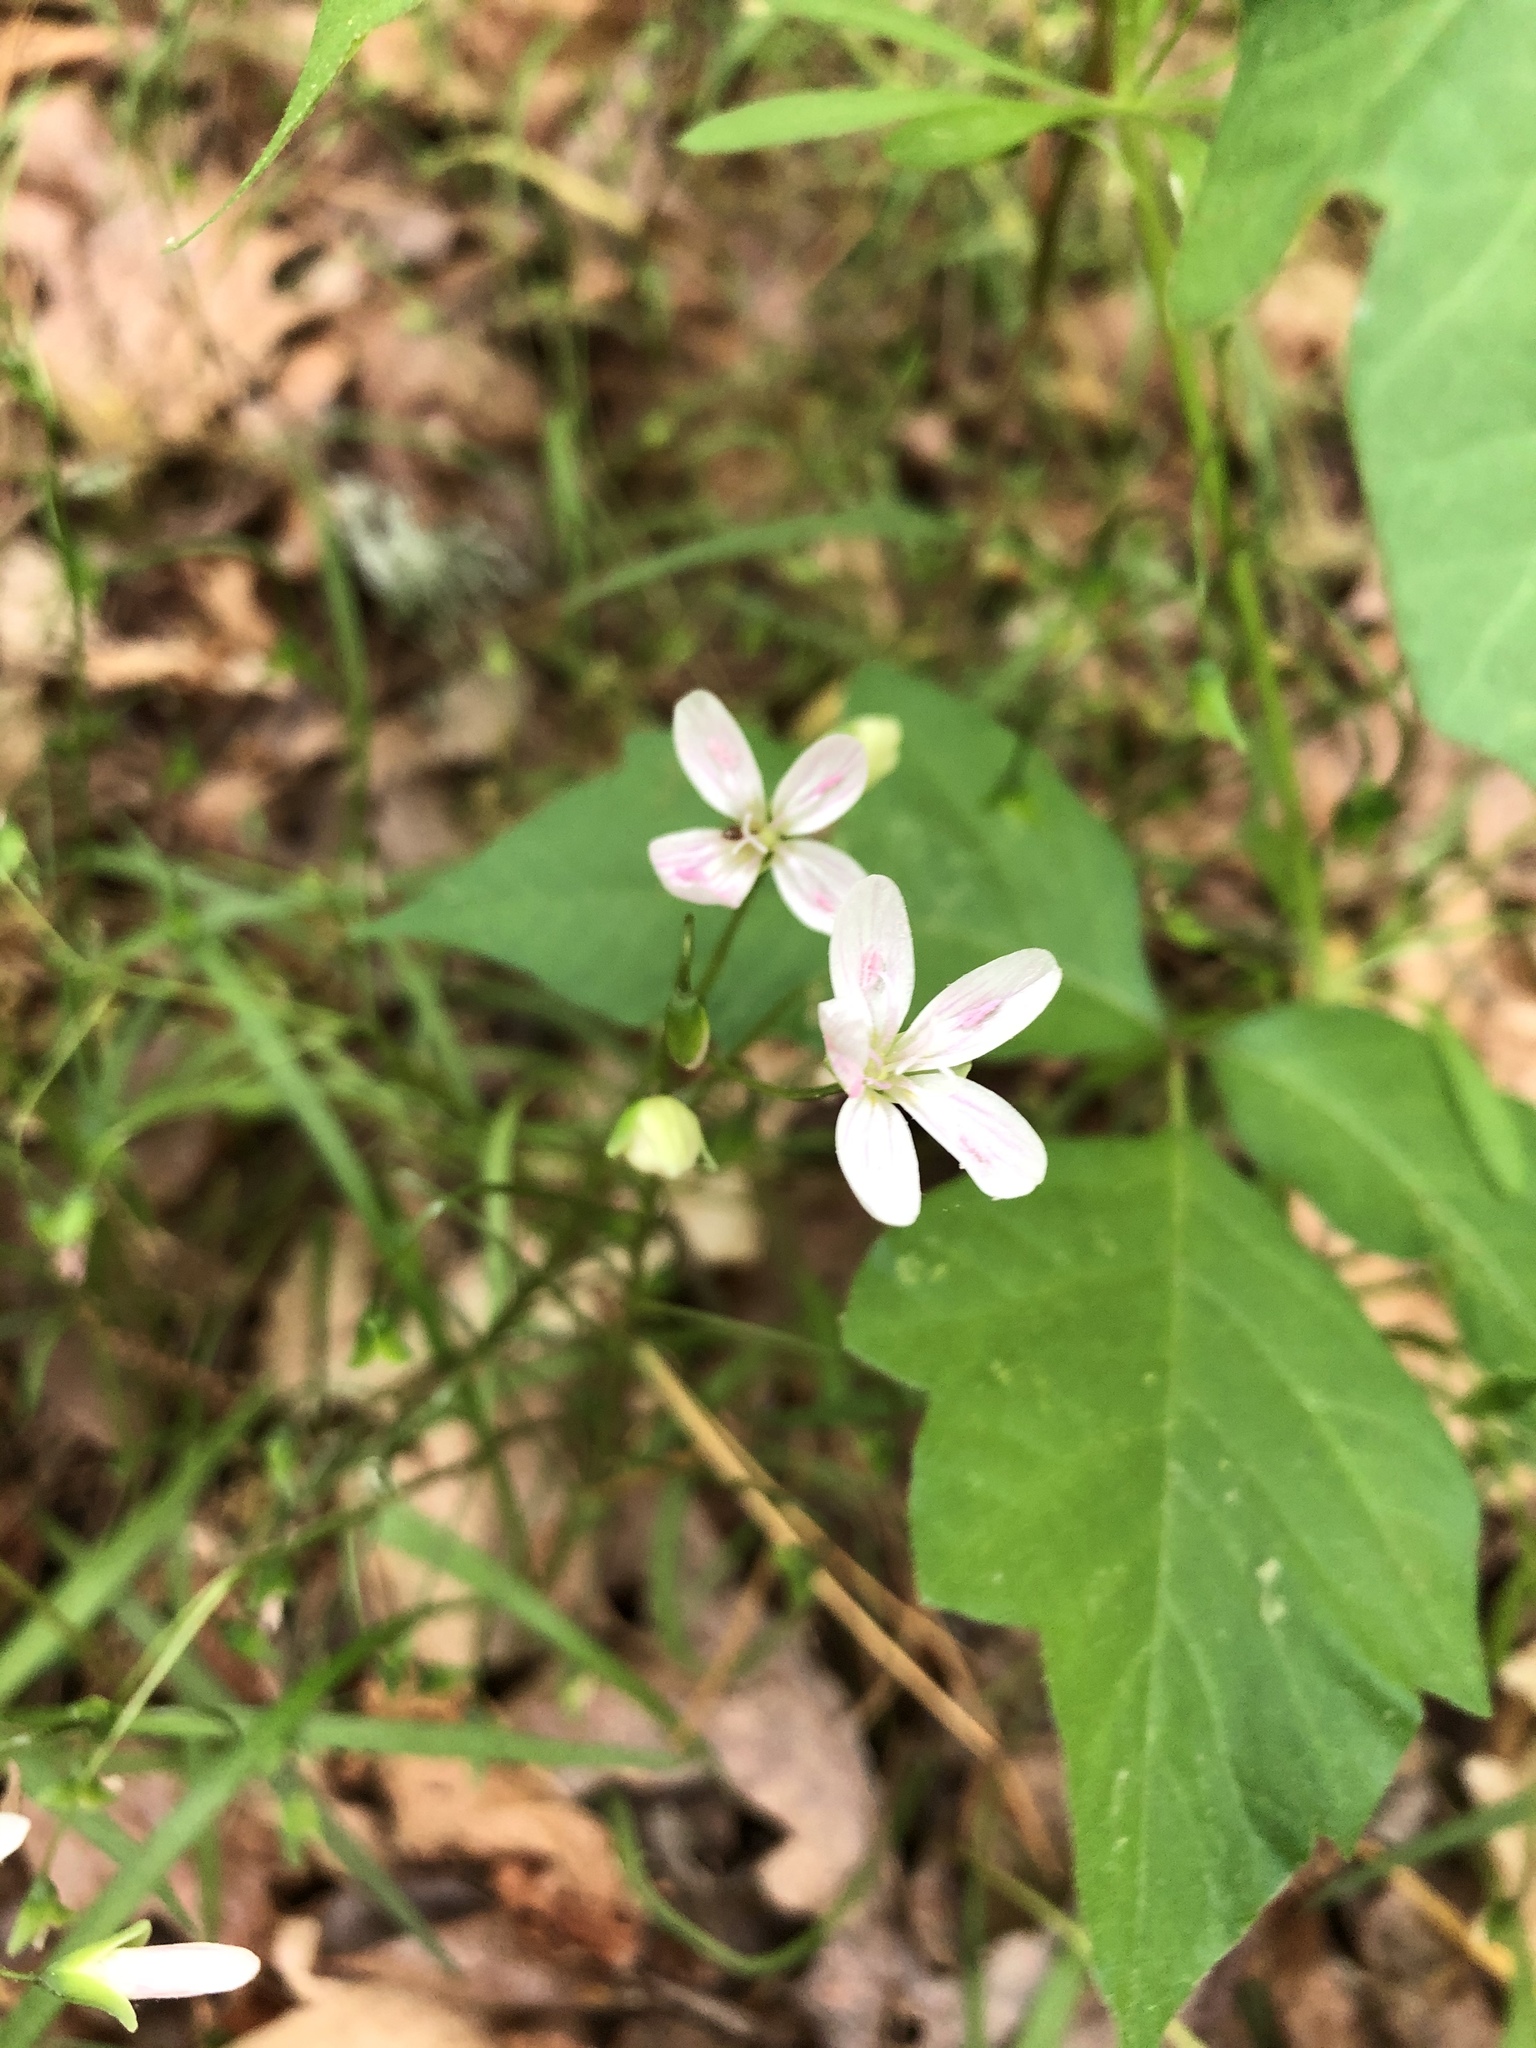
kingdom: Plantae
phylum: Tracheophyta
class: Magnoliopsida
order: Caryophyllales
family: Montiaceae
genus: Claytonia
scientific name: Claytonia virginica
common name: Virginia springbeauty
